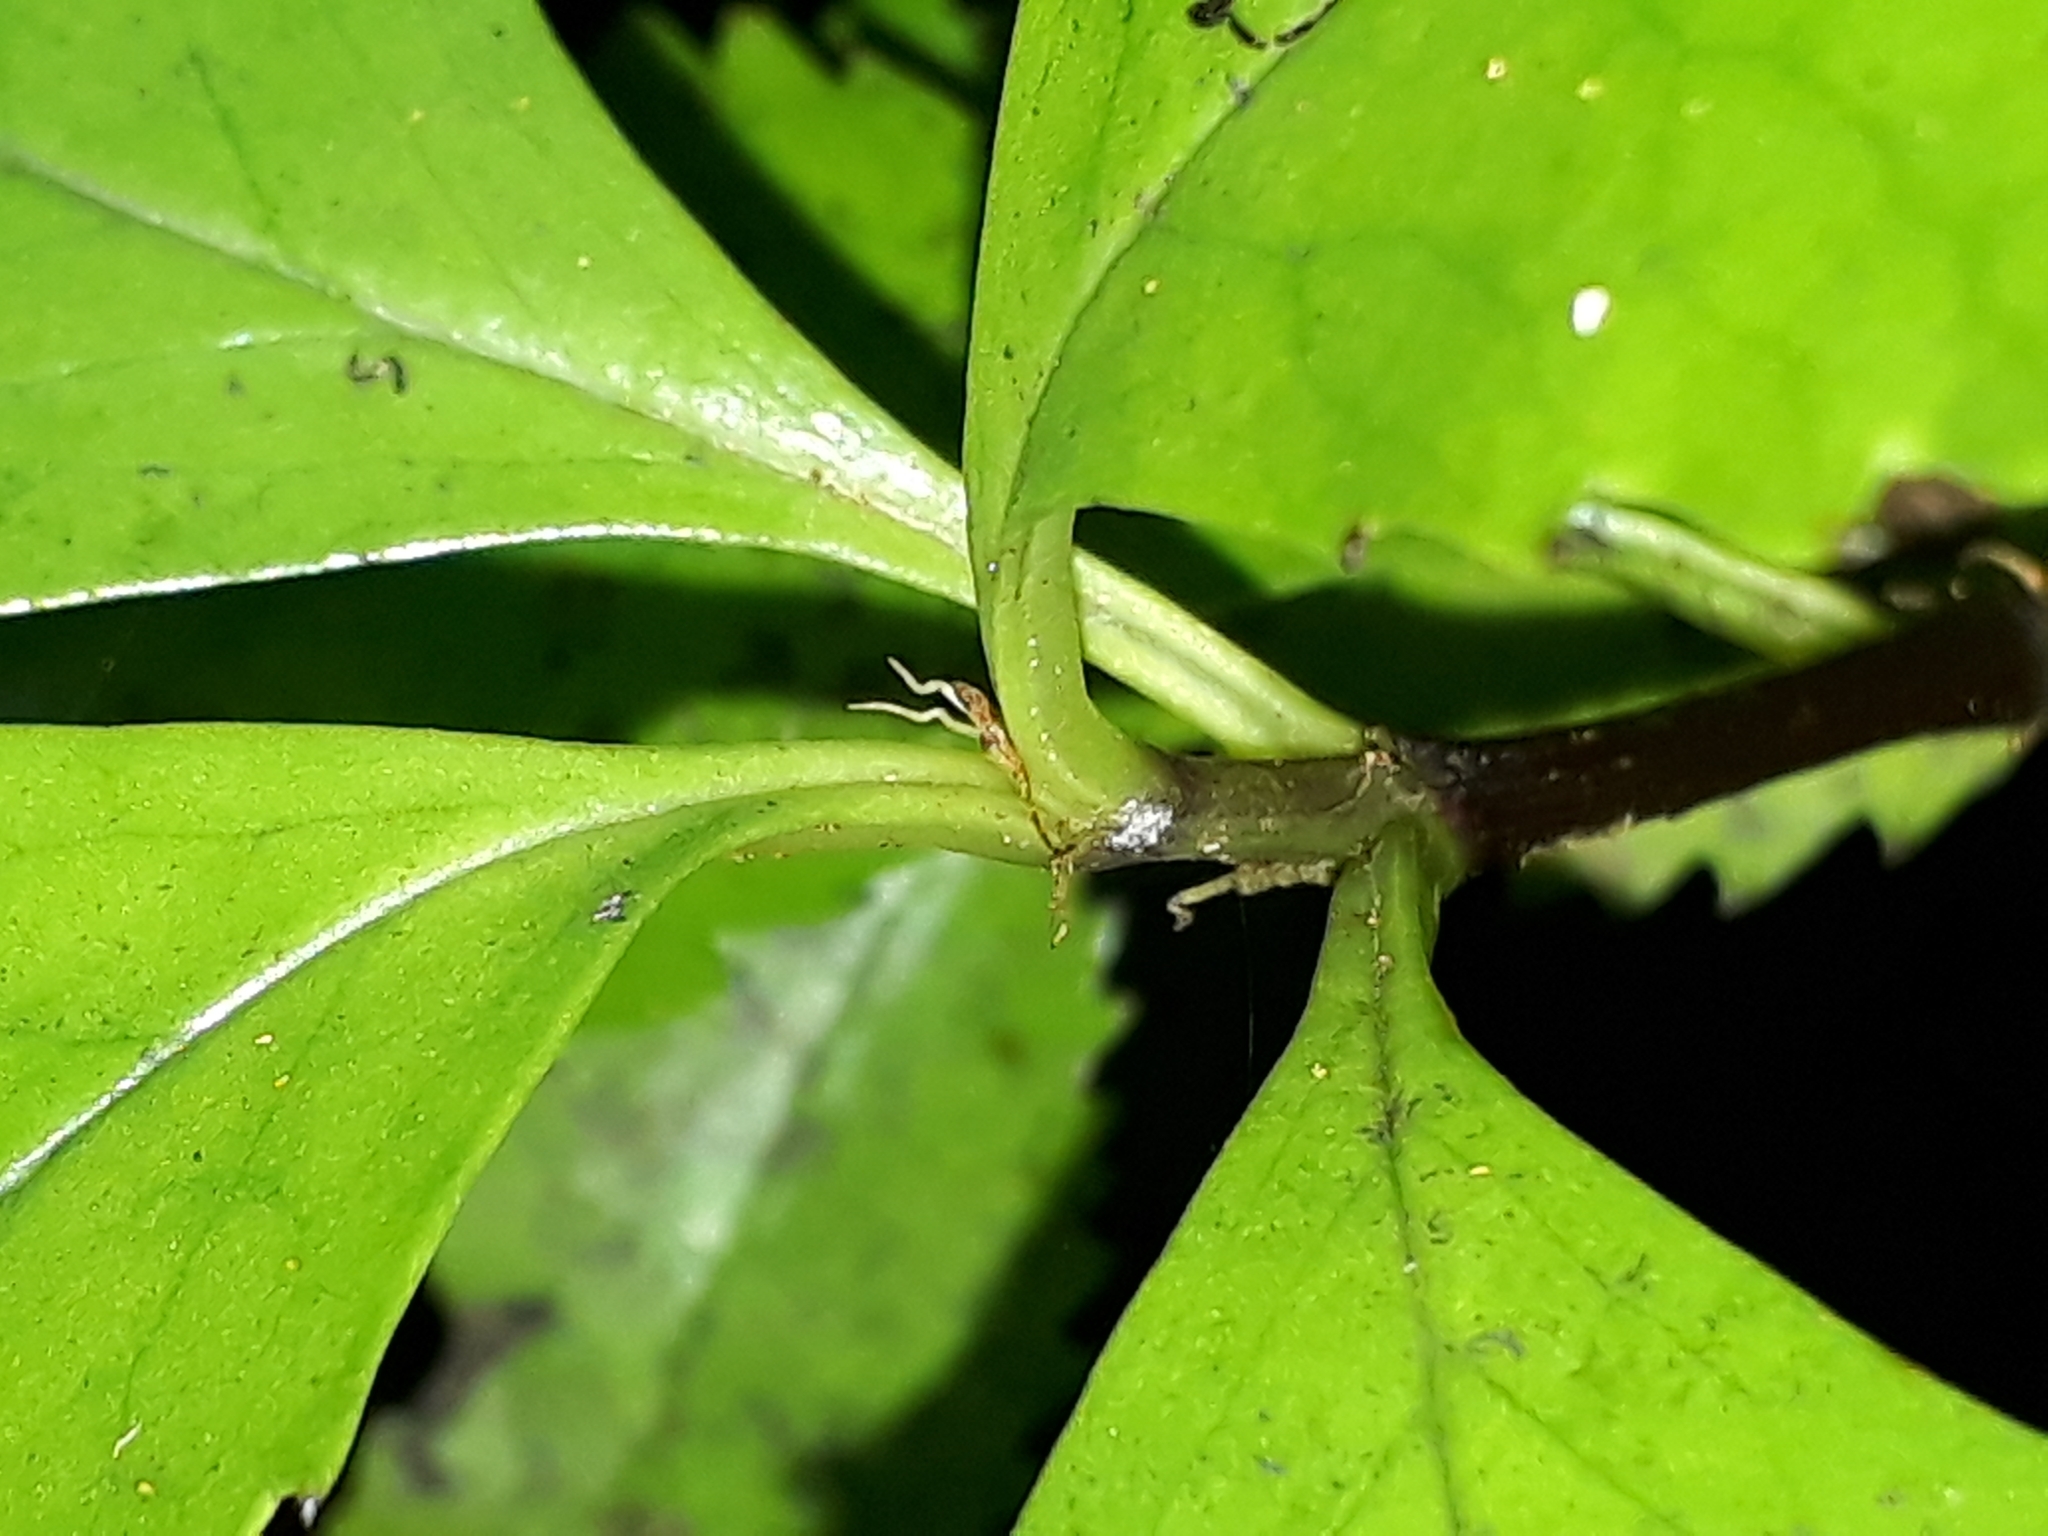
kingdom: Plantae
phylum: Tracheophyta
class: Magnoliopsida
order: Chloranthales
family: Chloranthaceae
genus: Ascarina
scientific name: Ascarina lucida
